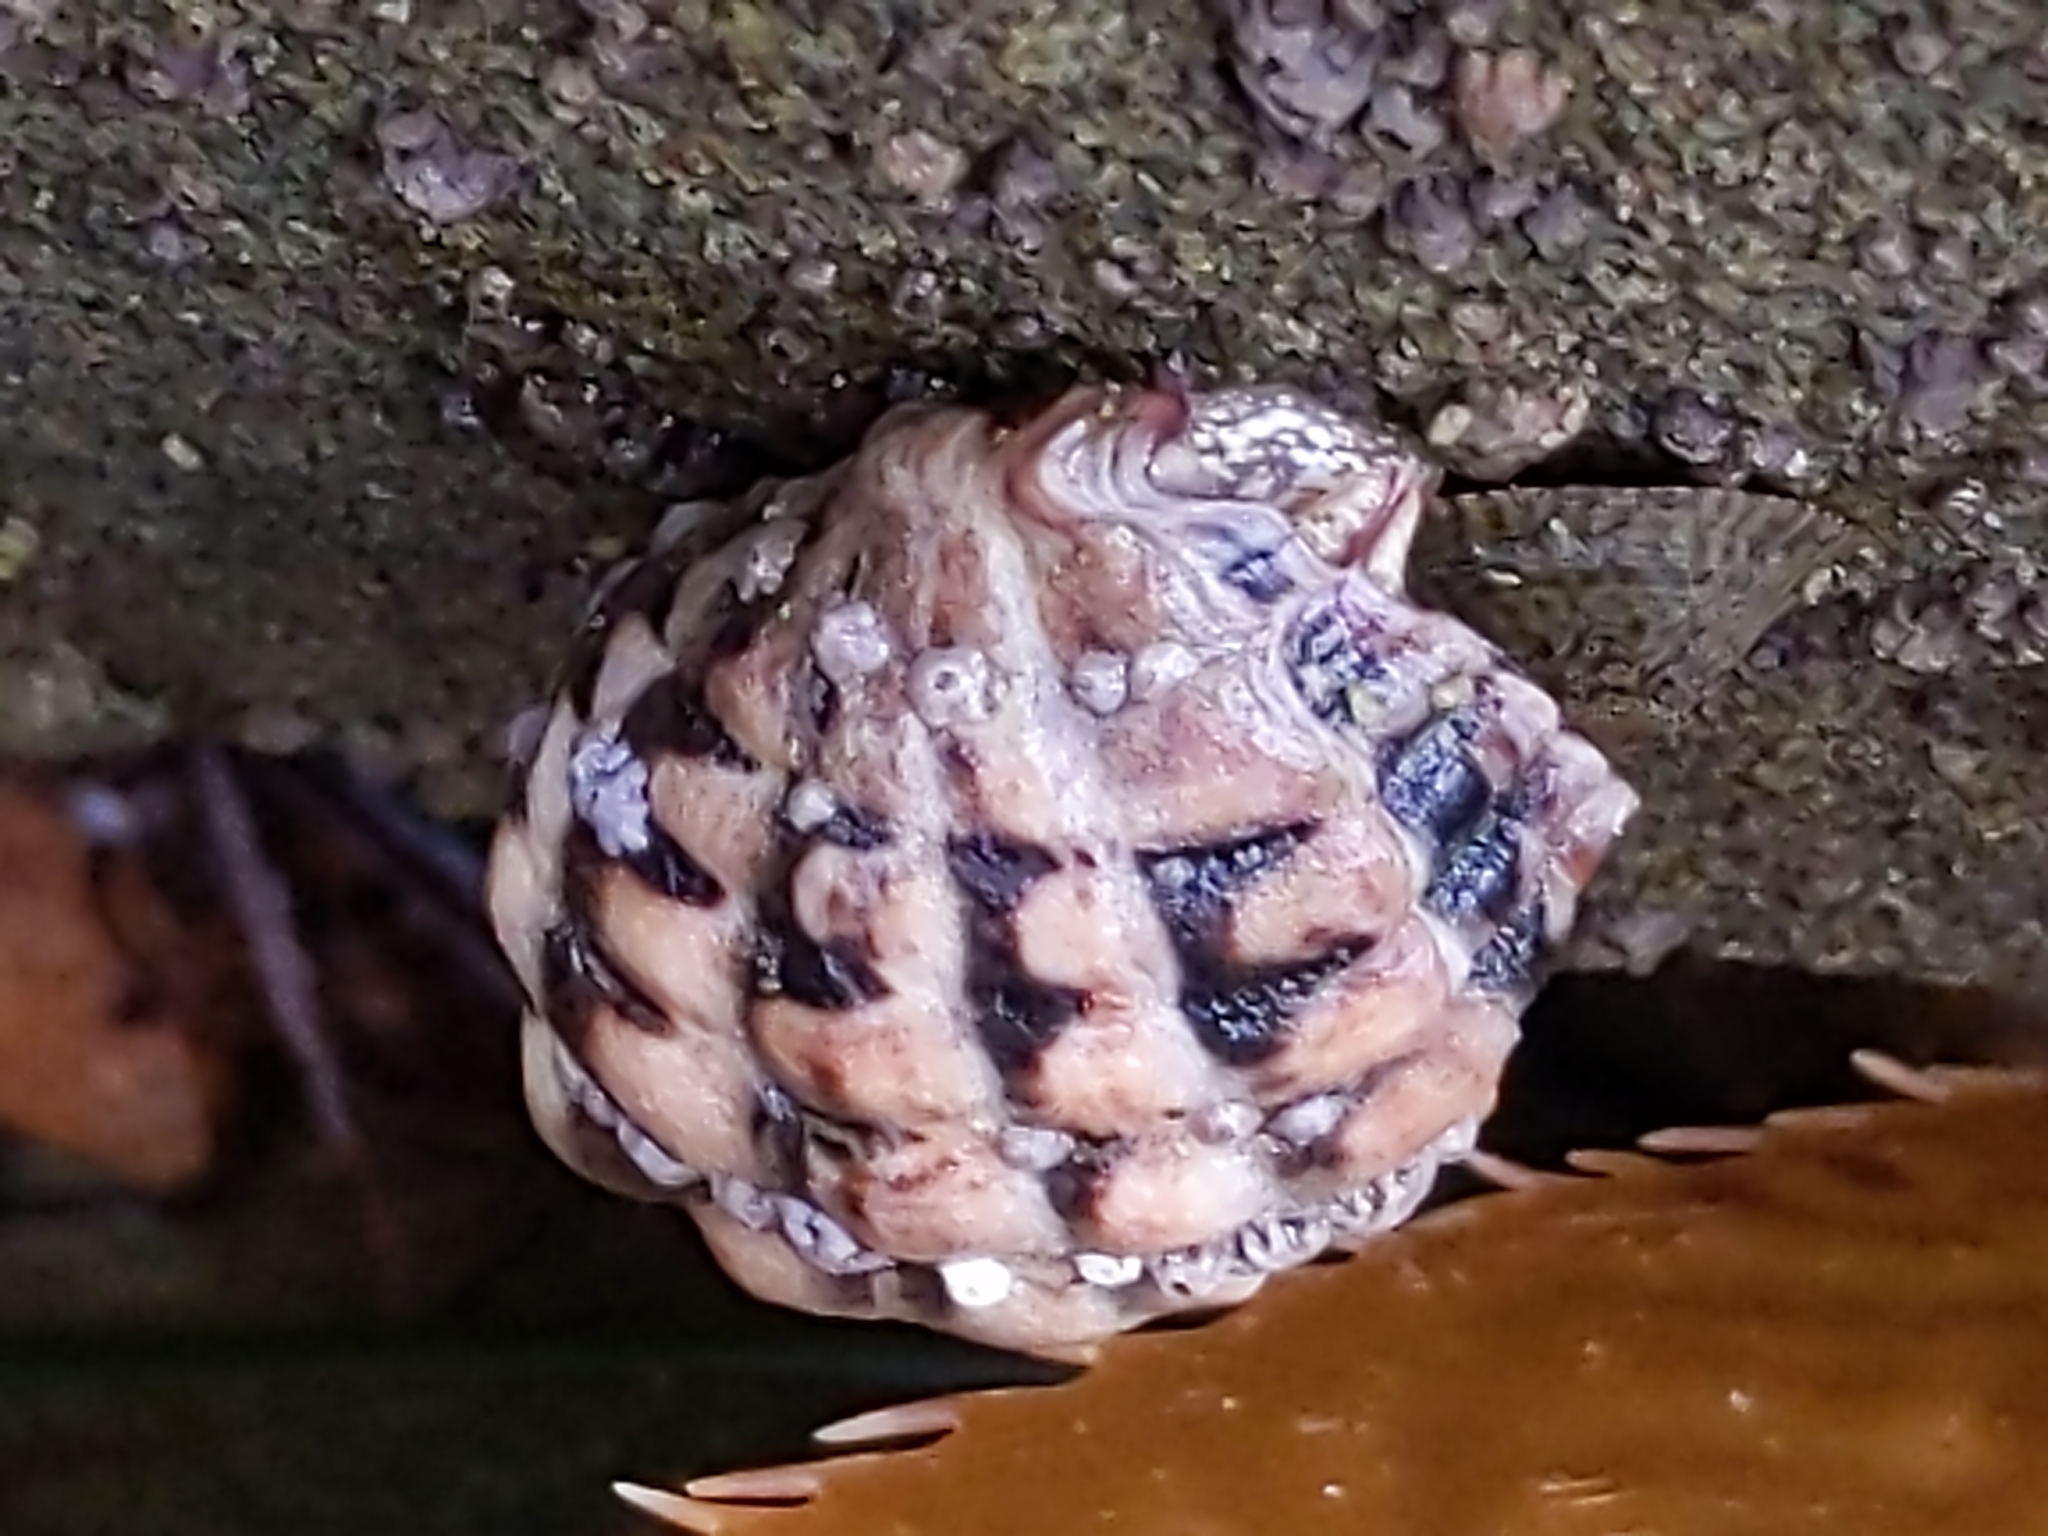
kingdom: Animalia
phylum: Mollusca
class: Gastropoda
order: Neogastropoda
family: Muricidae
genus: Mexacanthina
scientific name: Mexacanthina lugubris
